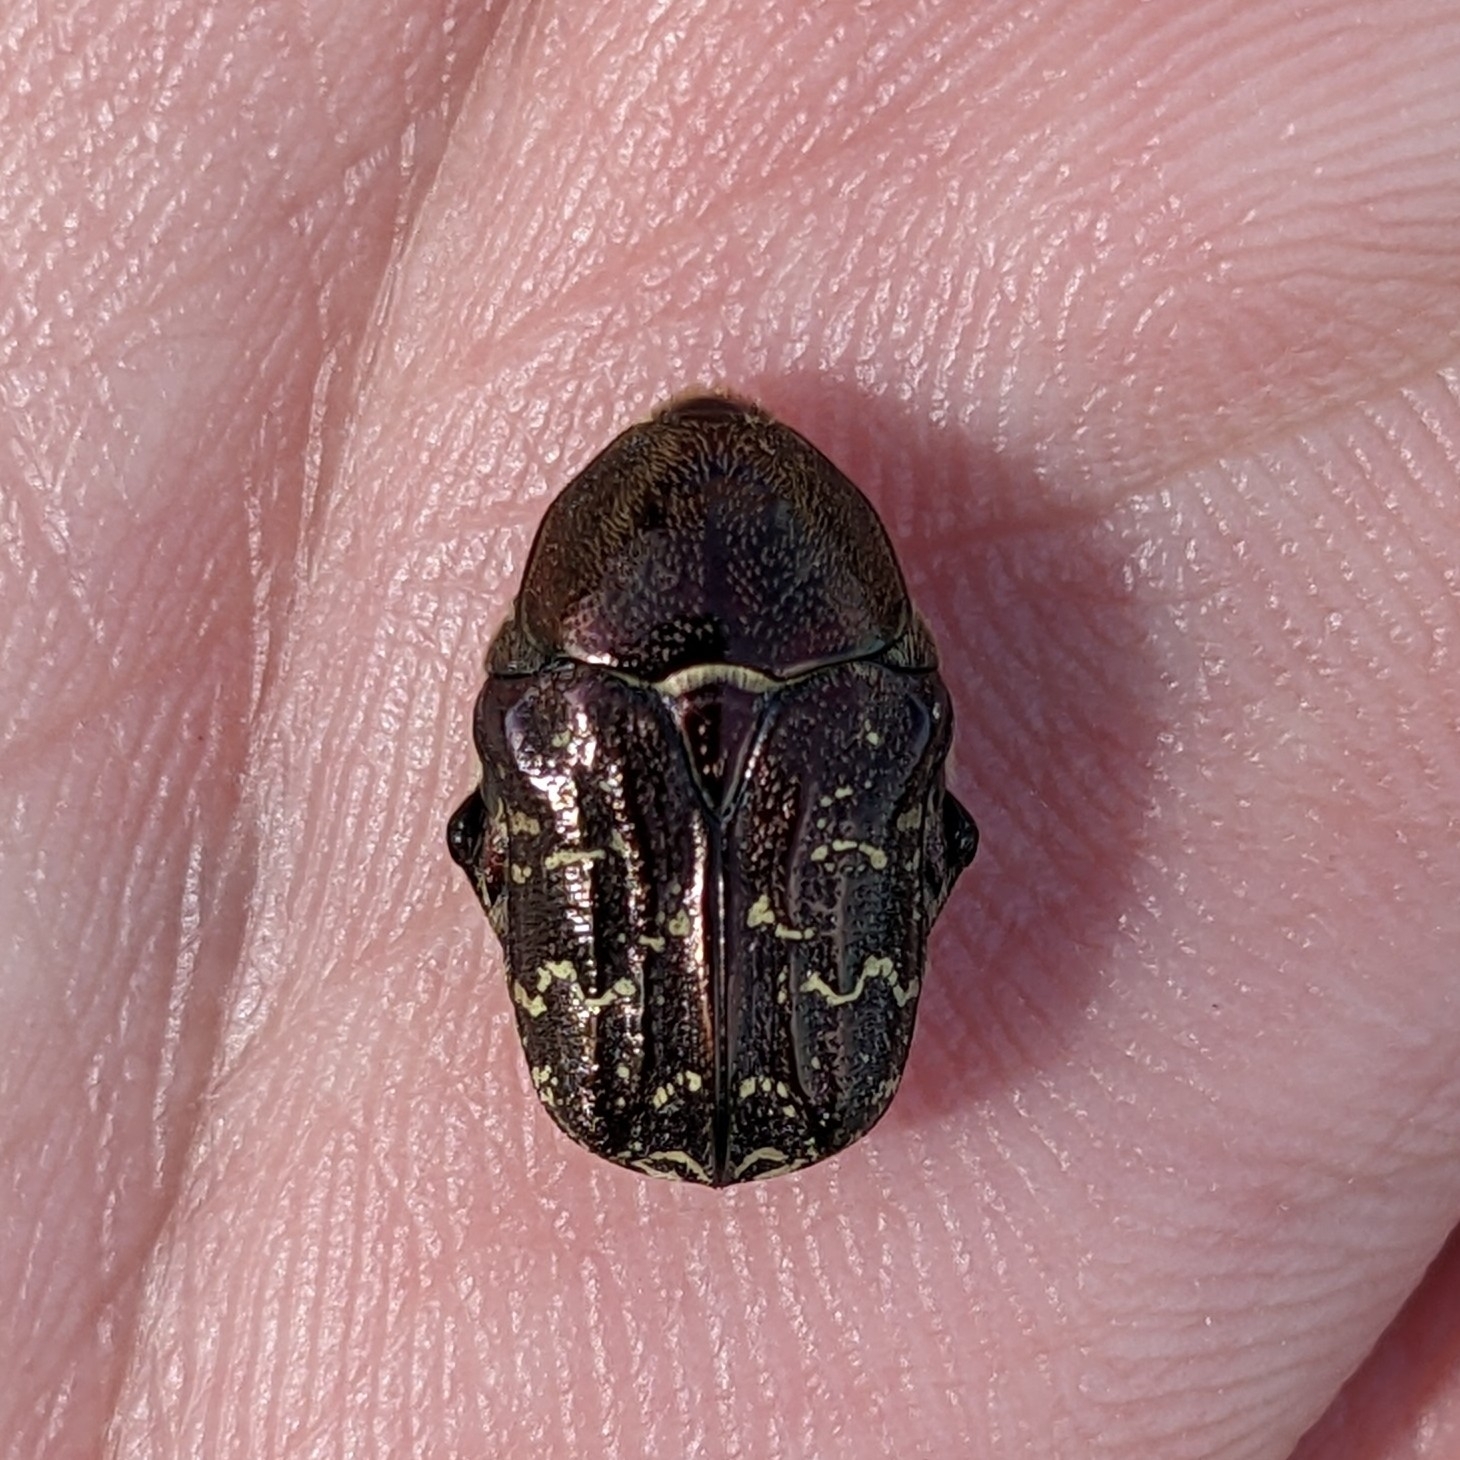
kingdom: Animalia
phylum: Arthropoda
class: Insecta
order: Coleoptera
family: Scarabaeidae
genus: Euphoria
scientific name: Euphoria sepulcralis
